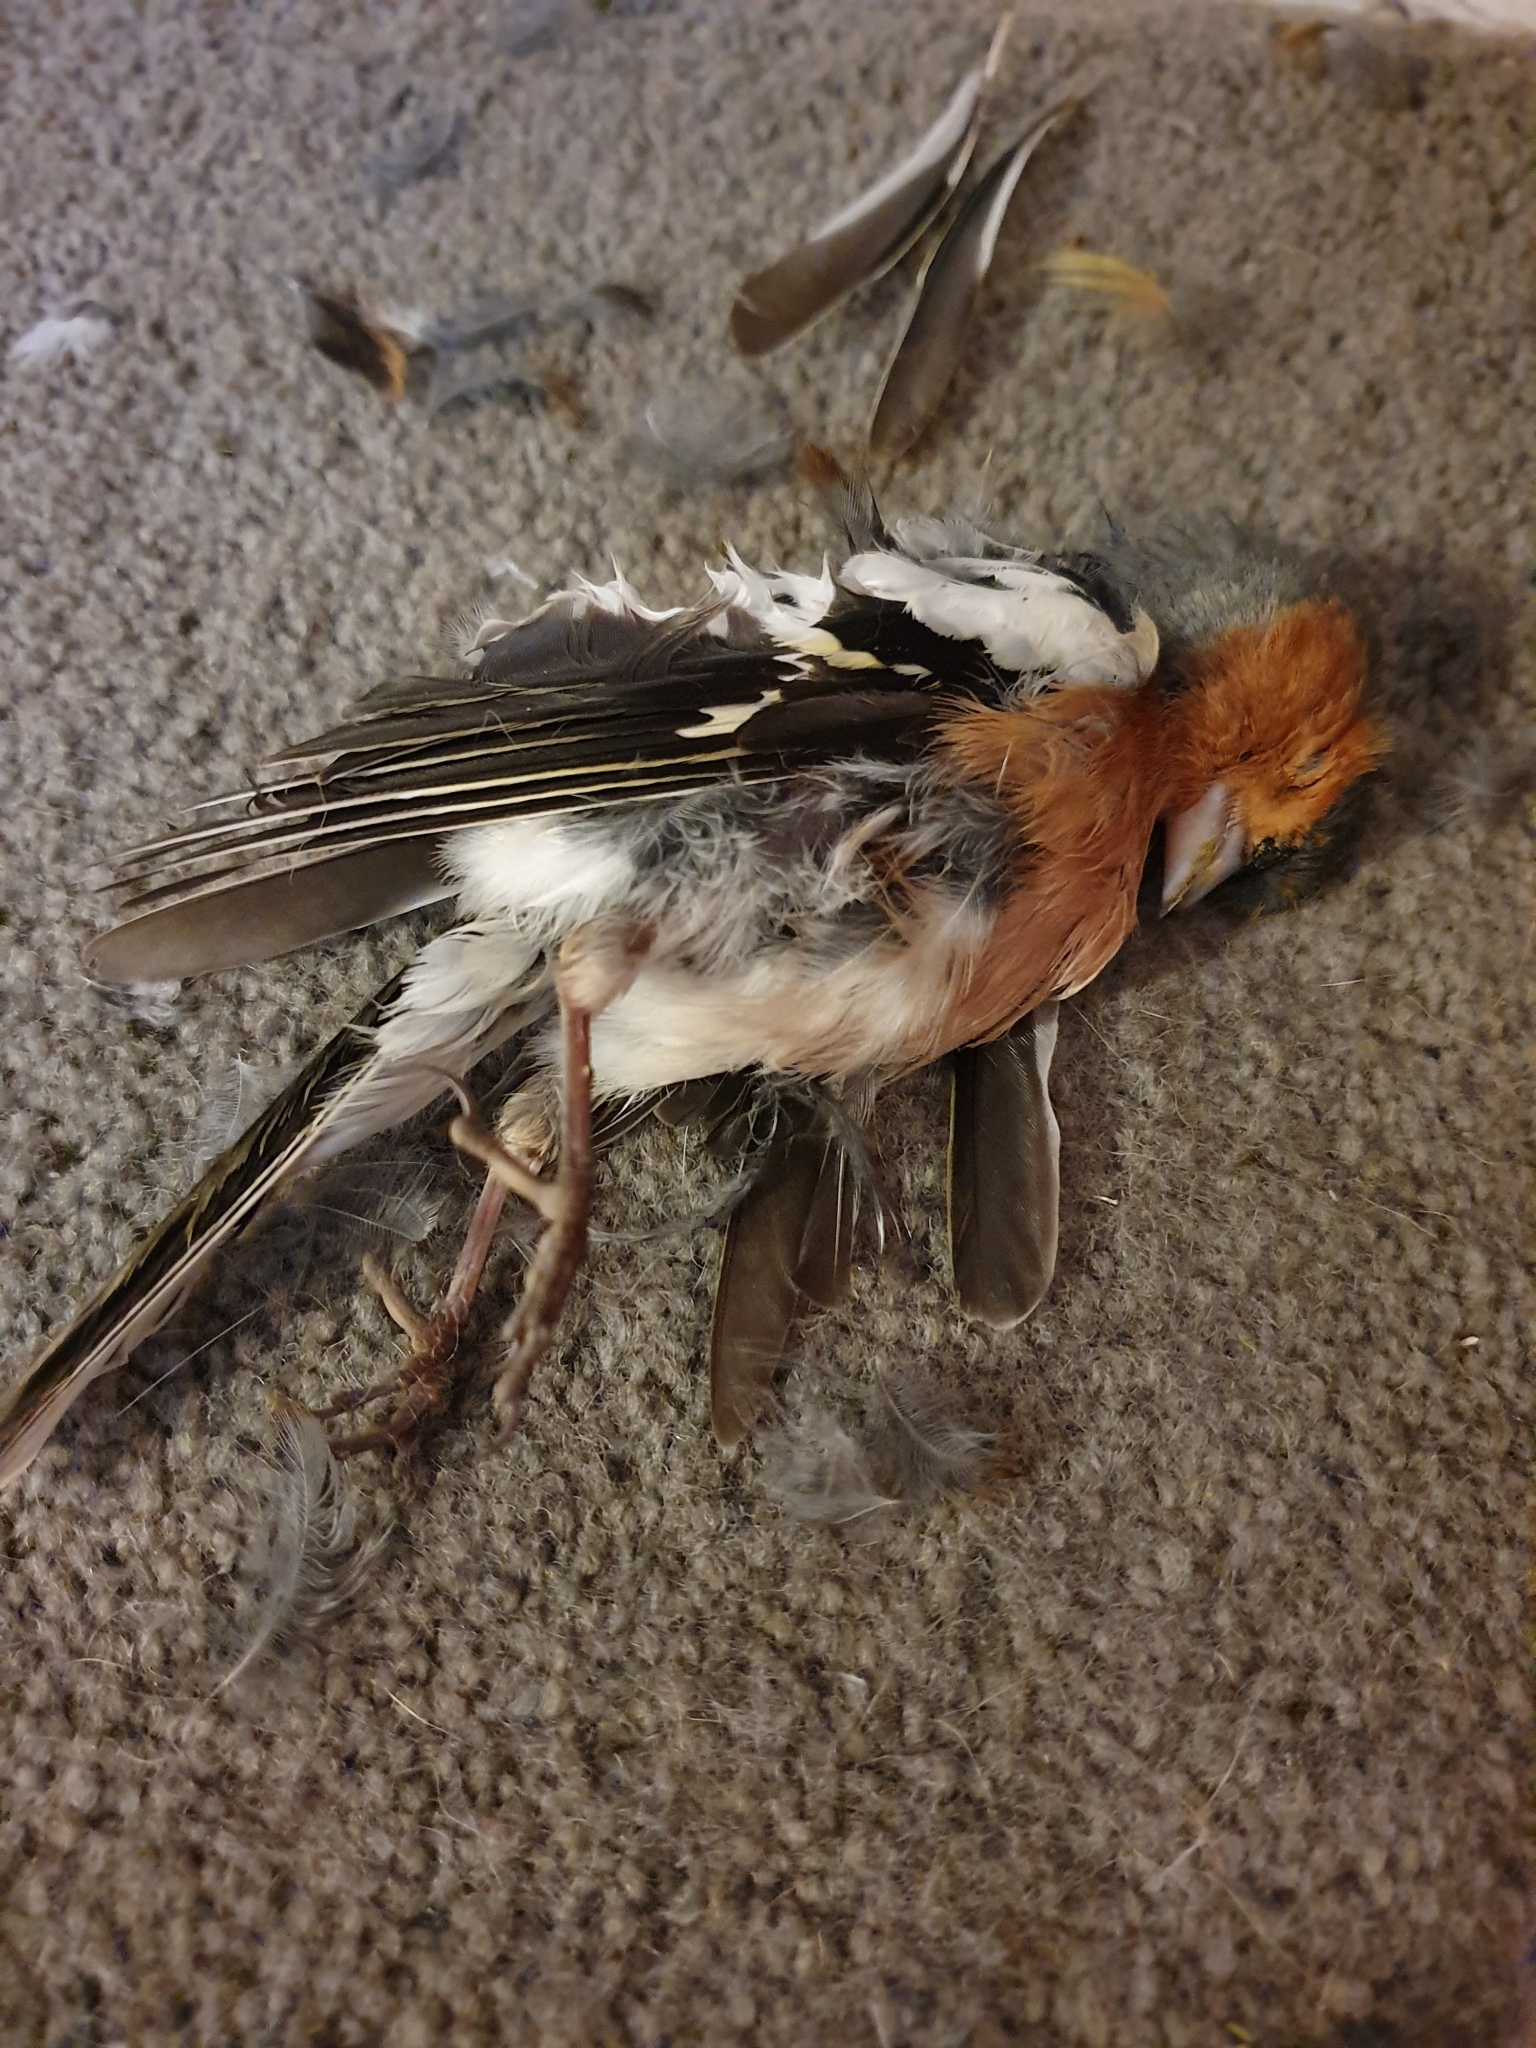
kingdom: Animalia
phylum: Chordata
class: Aves
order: Passeriformes
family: Fringillidae
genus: Fringilla
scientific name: Fringilla coelebs
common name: Common chaffinch
